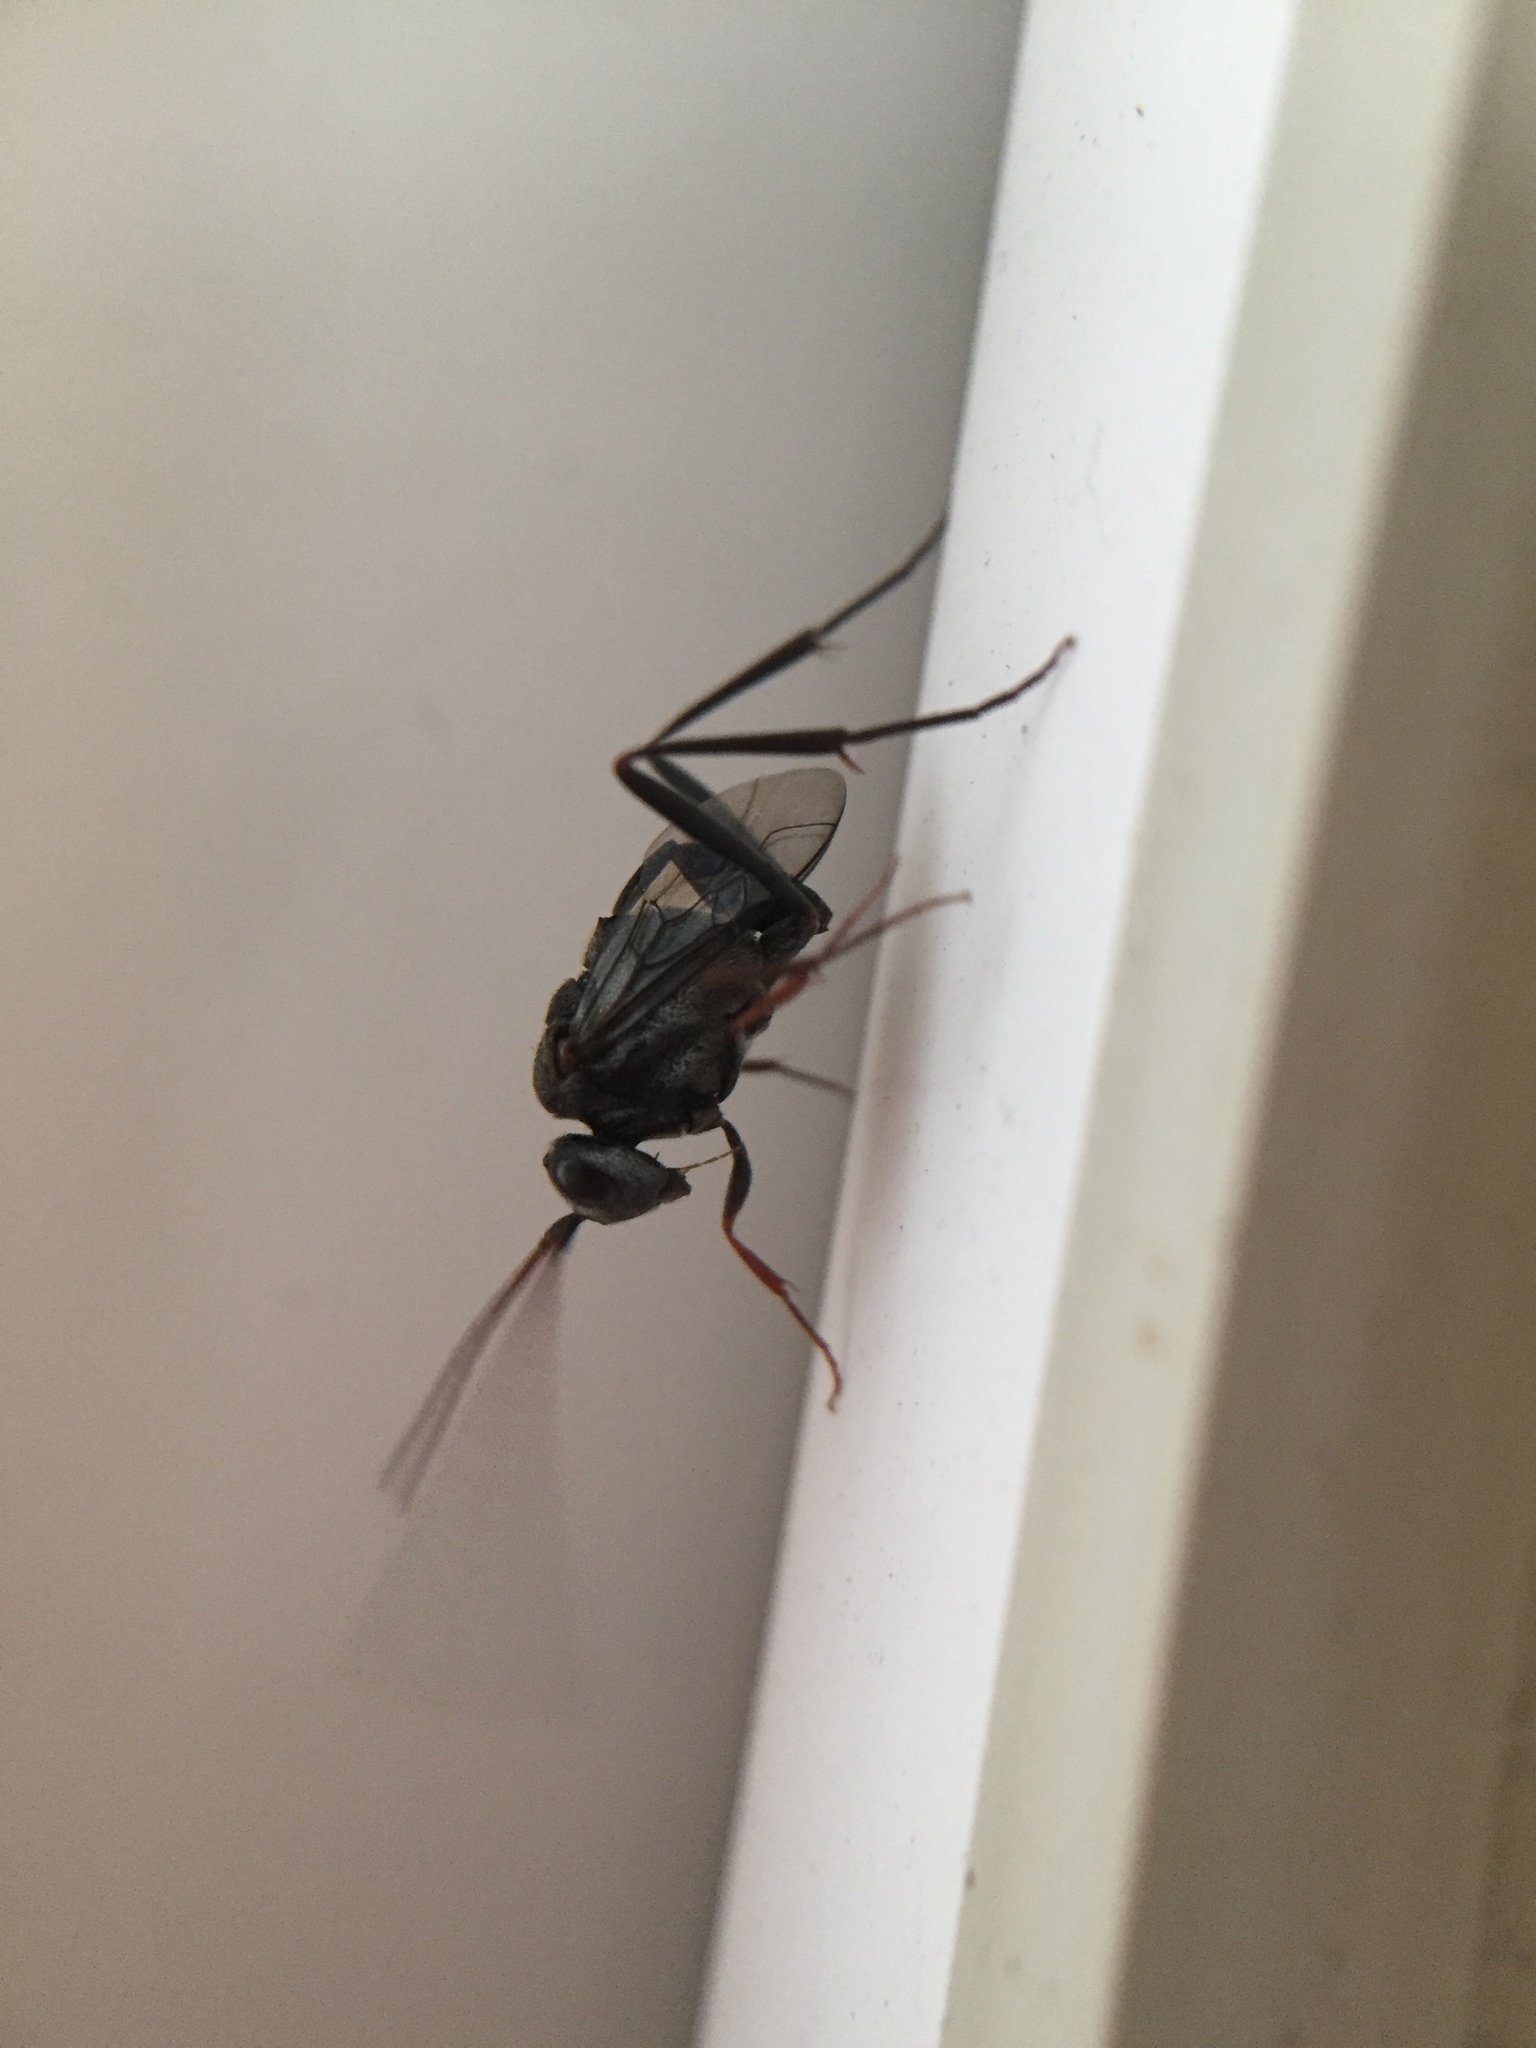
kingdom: Animalia
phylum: Arthropoda
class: Insecta
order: Hymenoptera
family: Evaniidae
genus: Prosevania
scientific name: Prosevania fuscipes
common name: Ensign wasp
